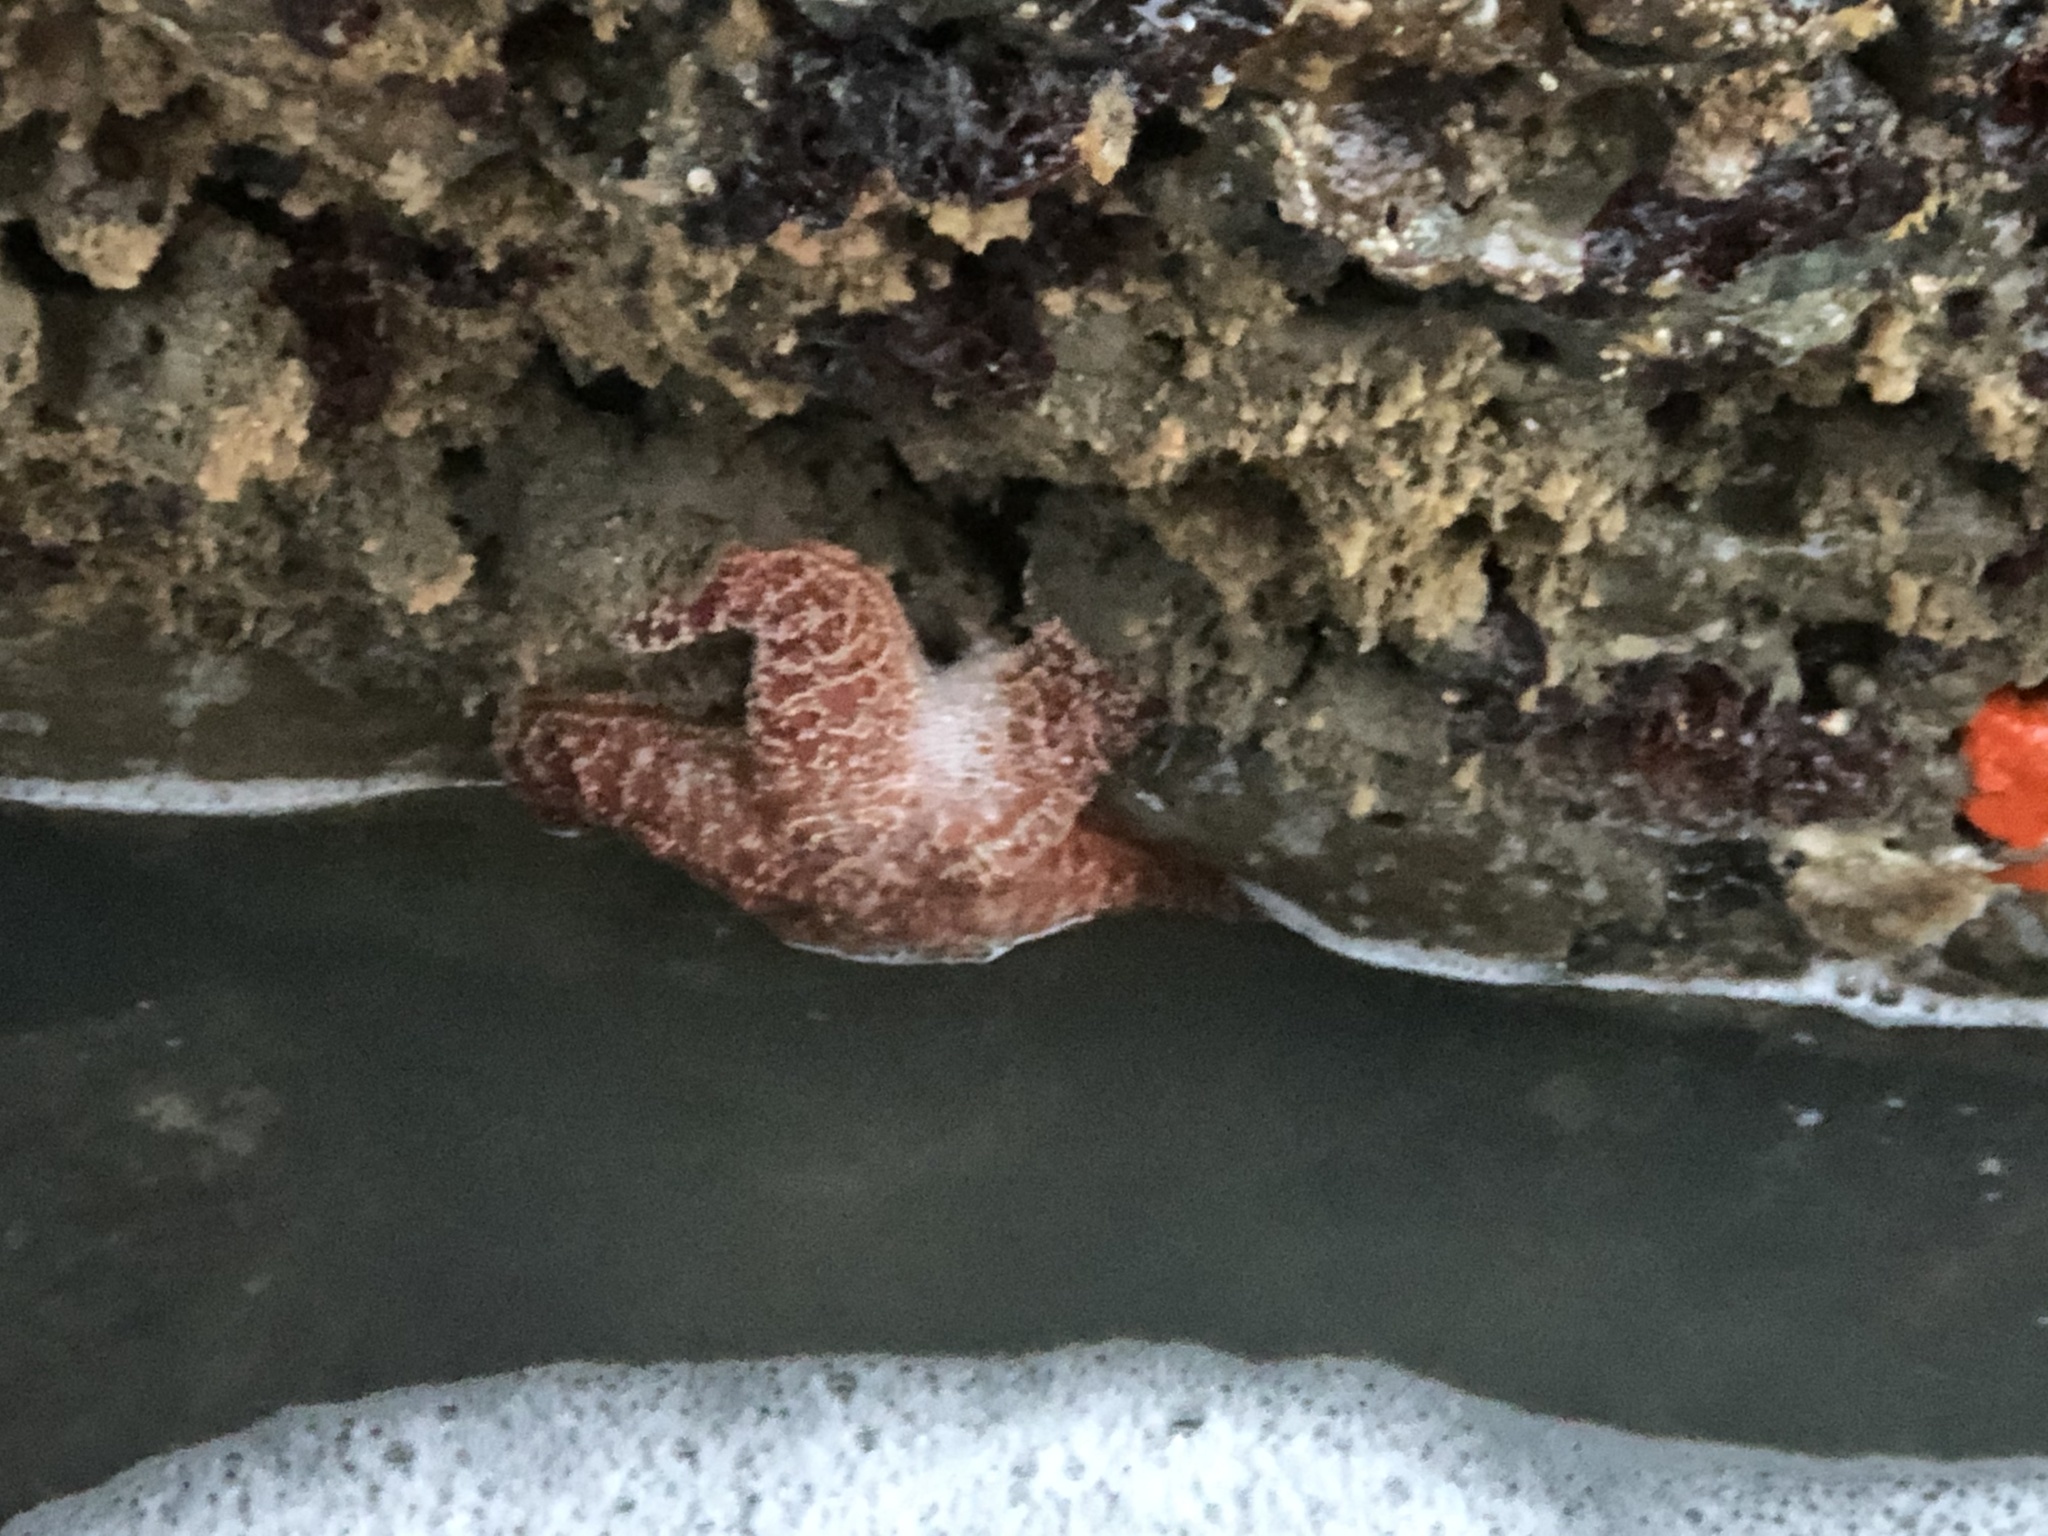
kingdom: Animalia
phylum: Echinodermata
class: Asteroidea
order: Forcipulatida
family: Asteriidae
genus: Pisaster
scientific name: Pisaster ochraceus
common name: Ochre stars
